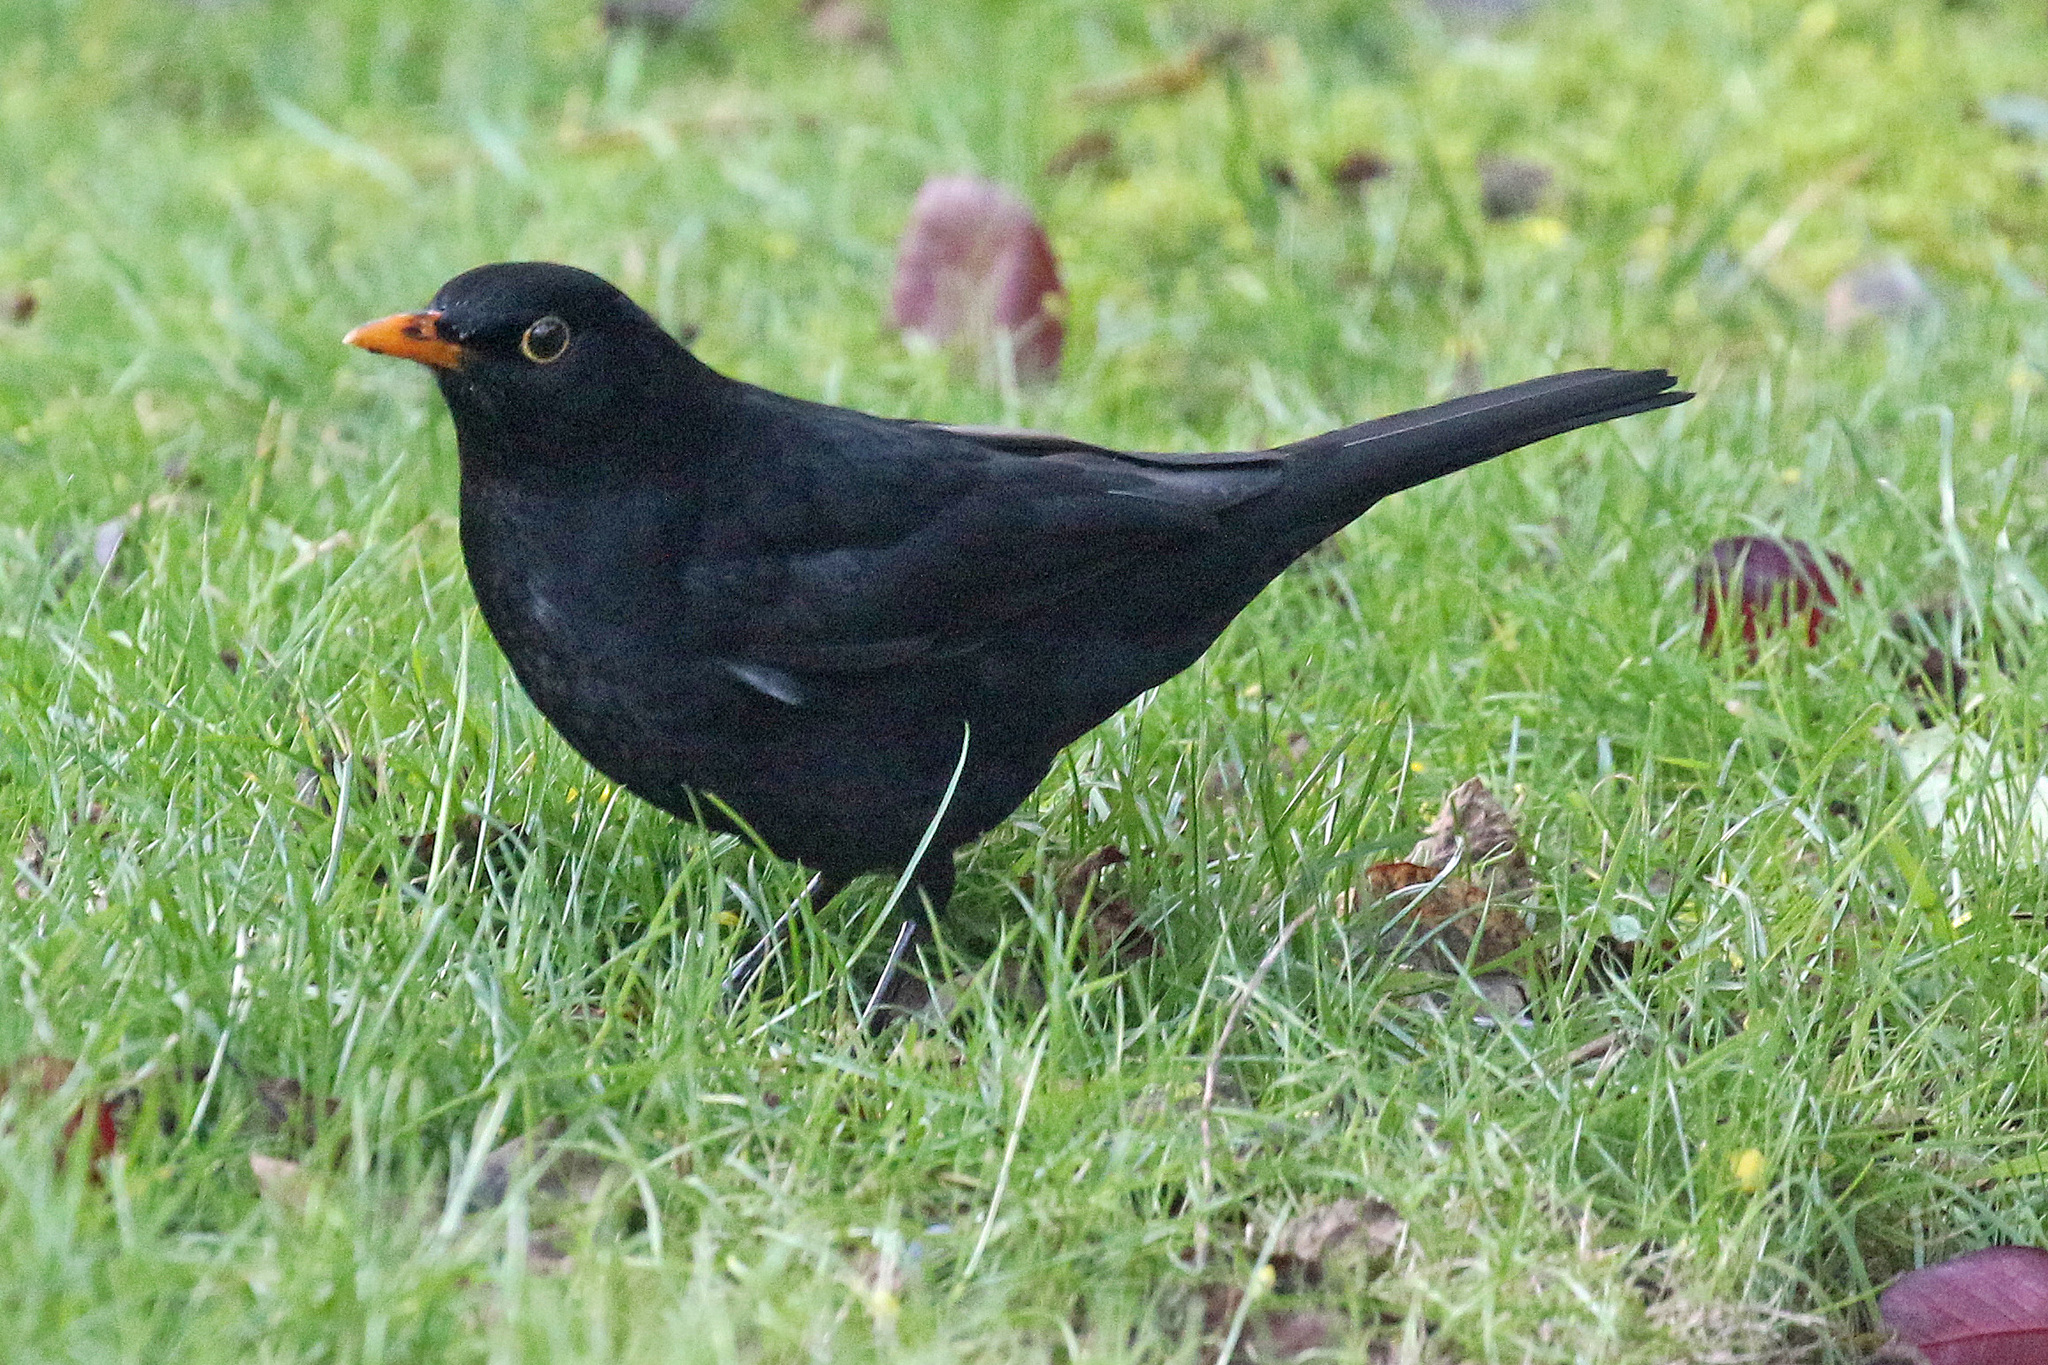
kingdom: Animalia
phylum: Chordata
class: Aves
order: Passeriformes
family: Turdidae
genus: Turdus
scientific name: Turdus merula
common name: Common blackbird
